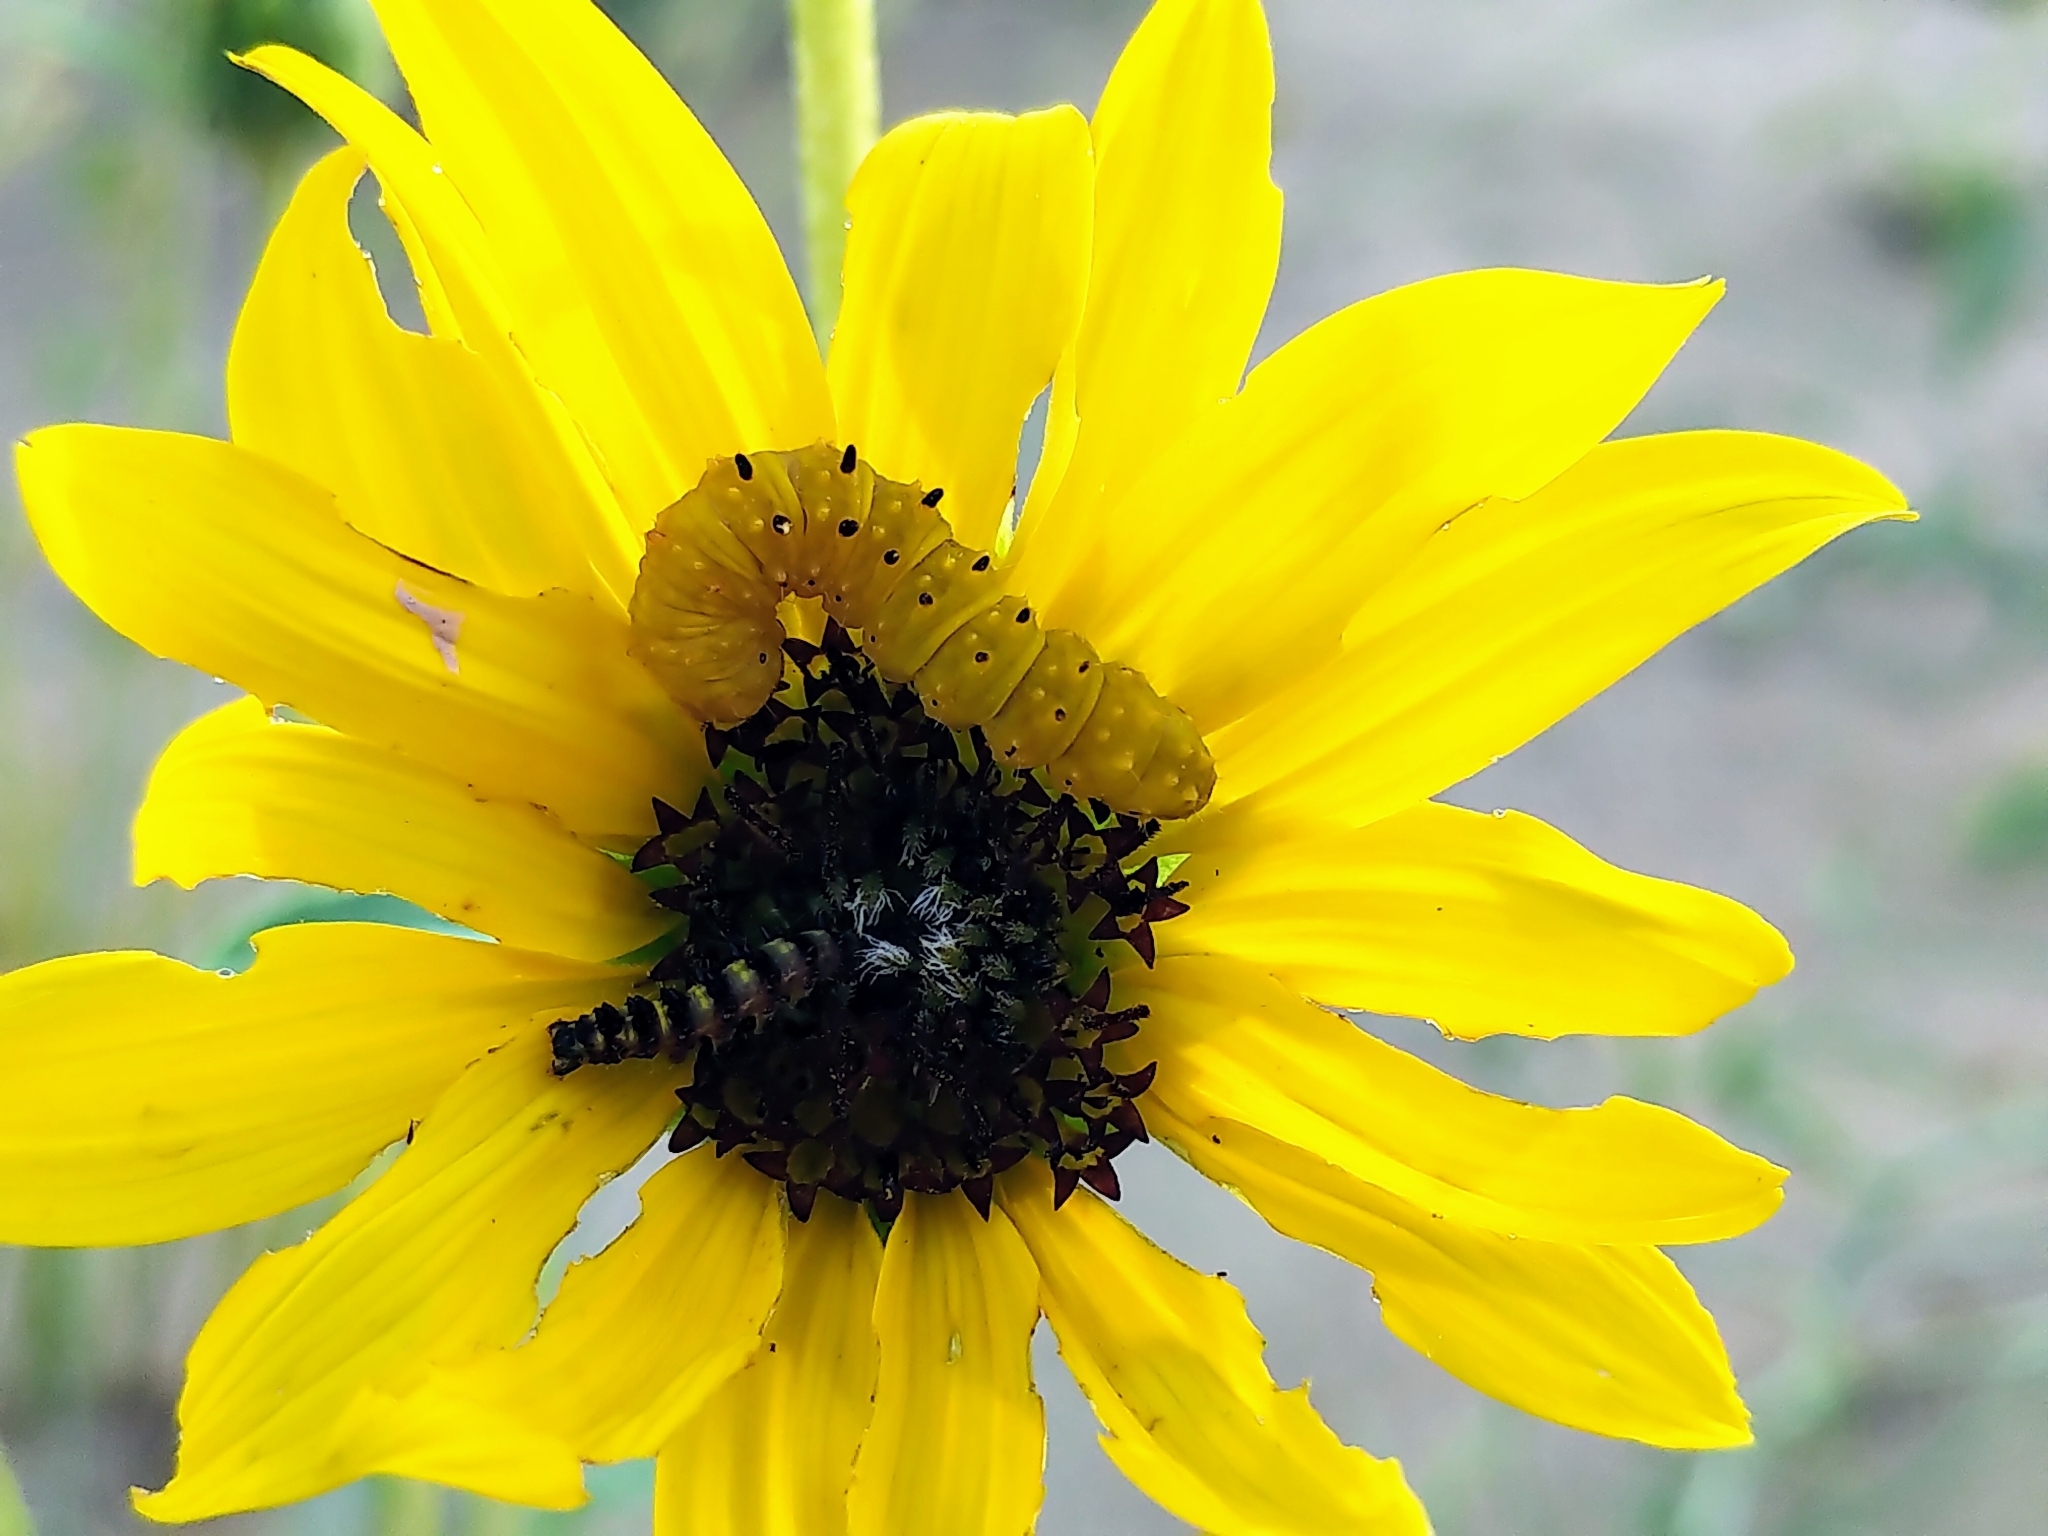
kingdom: Animalia
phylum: Arthropoda
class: Insecta
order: Lepidoptera
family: Noctuidae
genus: Stiria
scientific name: Stiria rugifrons
